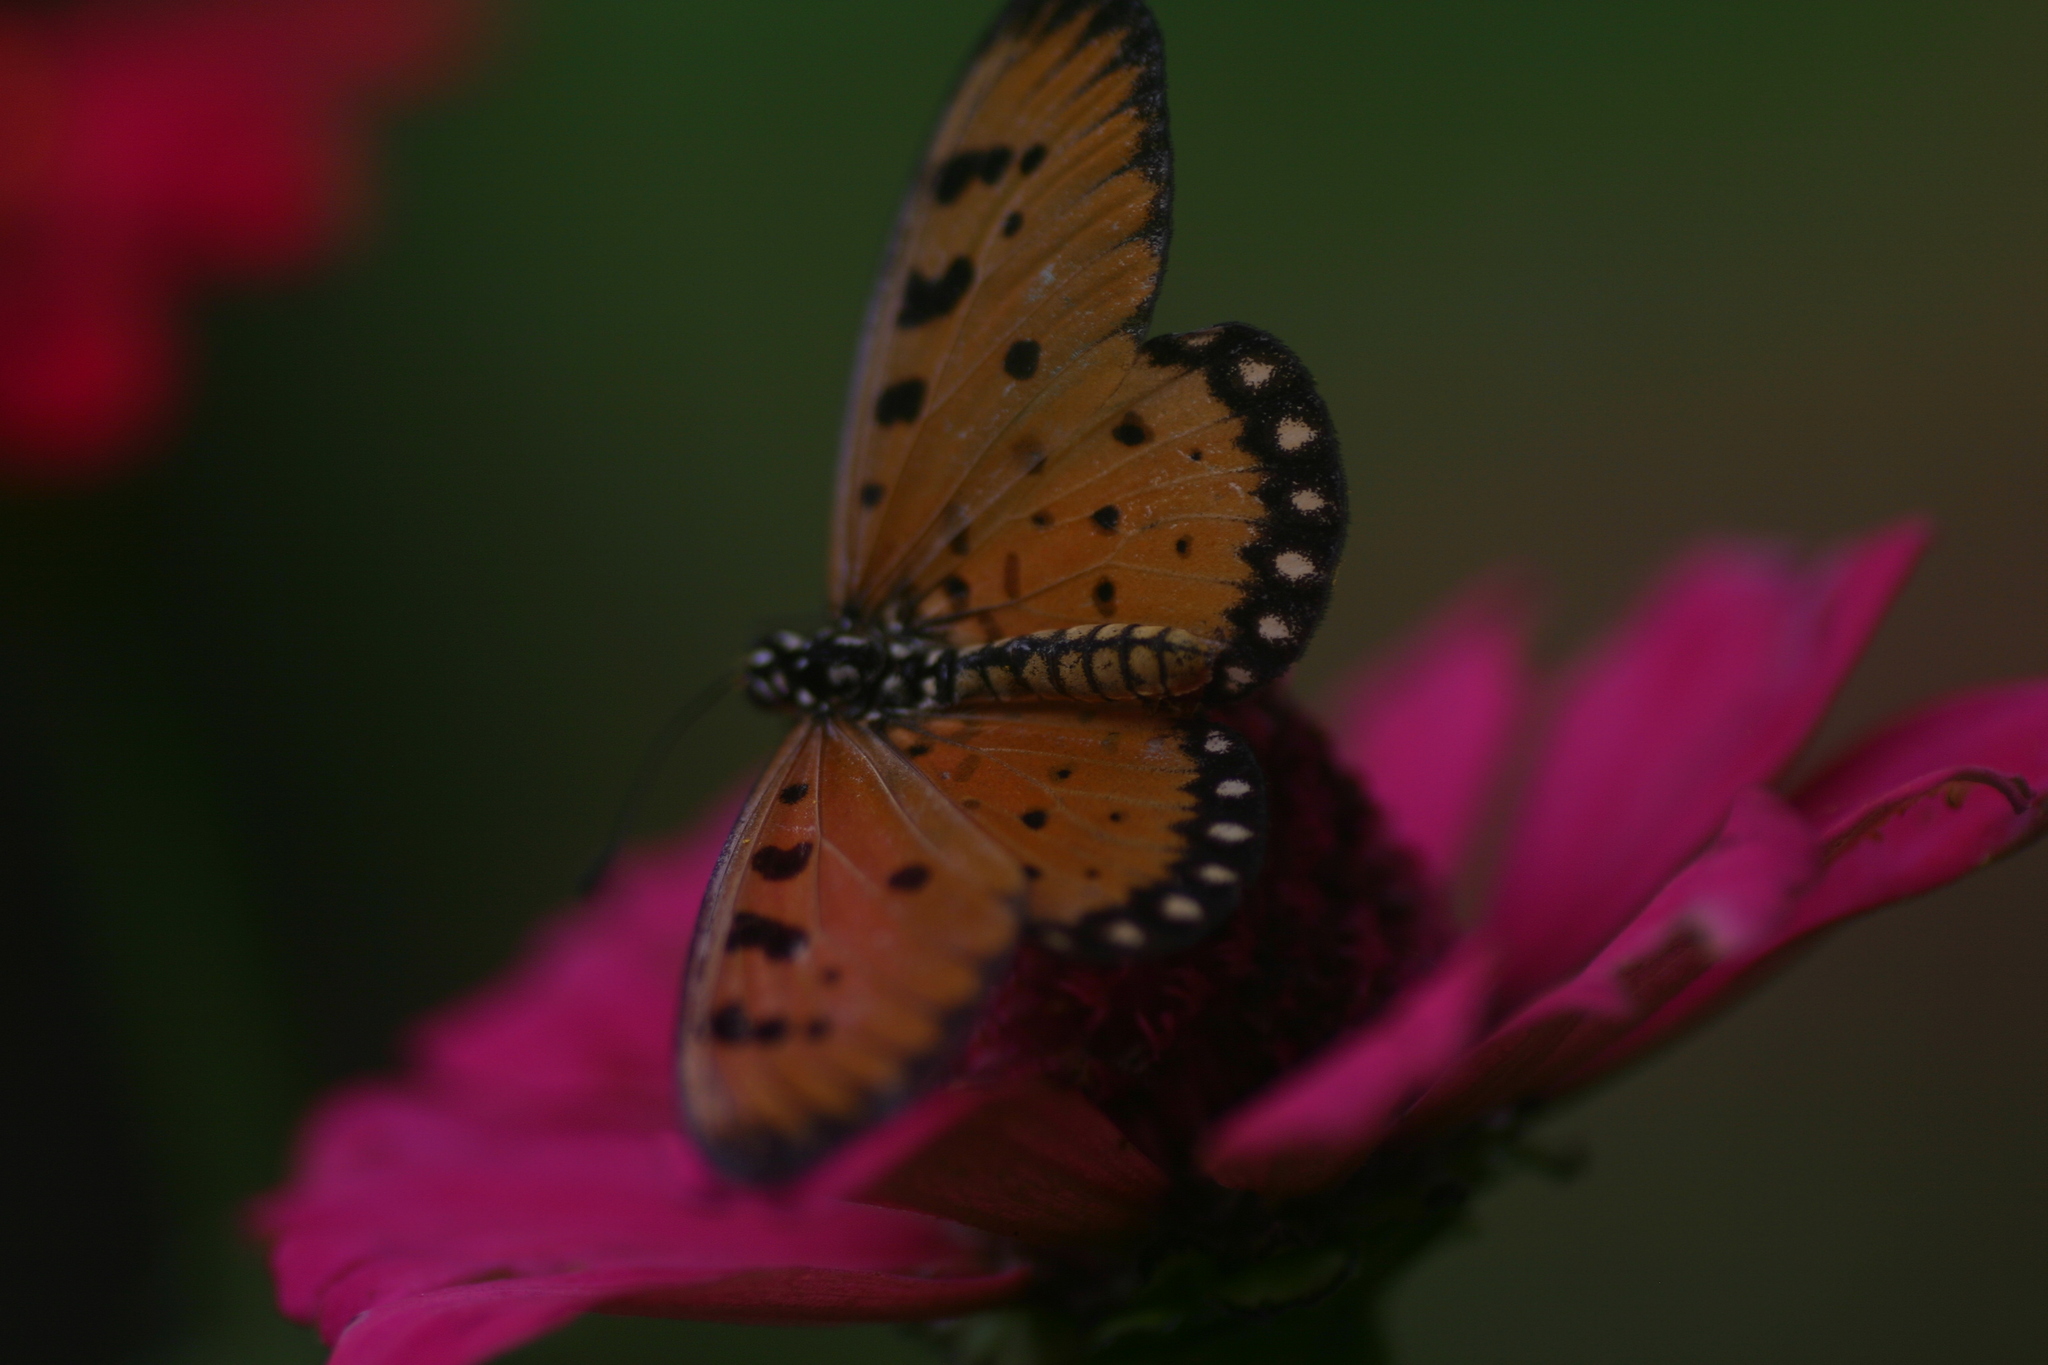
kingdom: Animalia
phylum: Arthropoda
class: Insecta
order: Lepidoptera
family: Nymphalidae
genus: Acraea
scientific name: Acraea terpsicore
